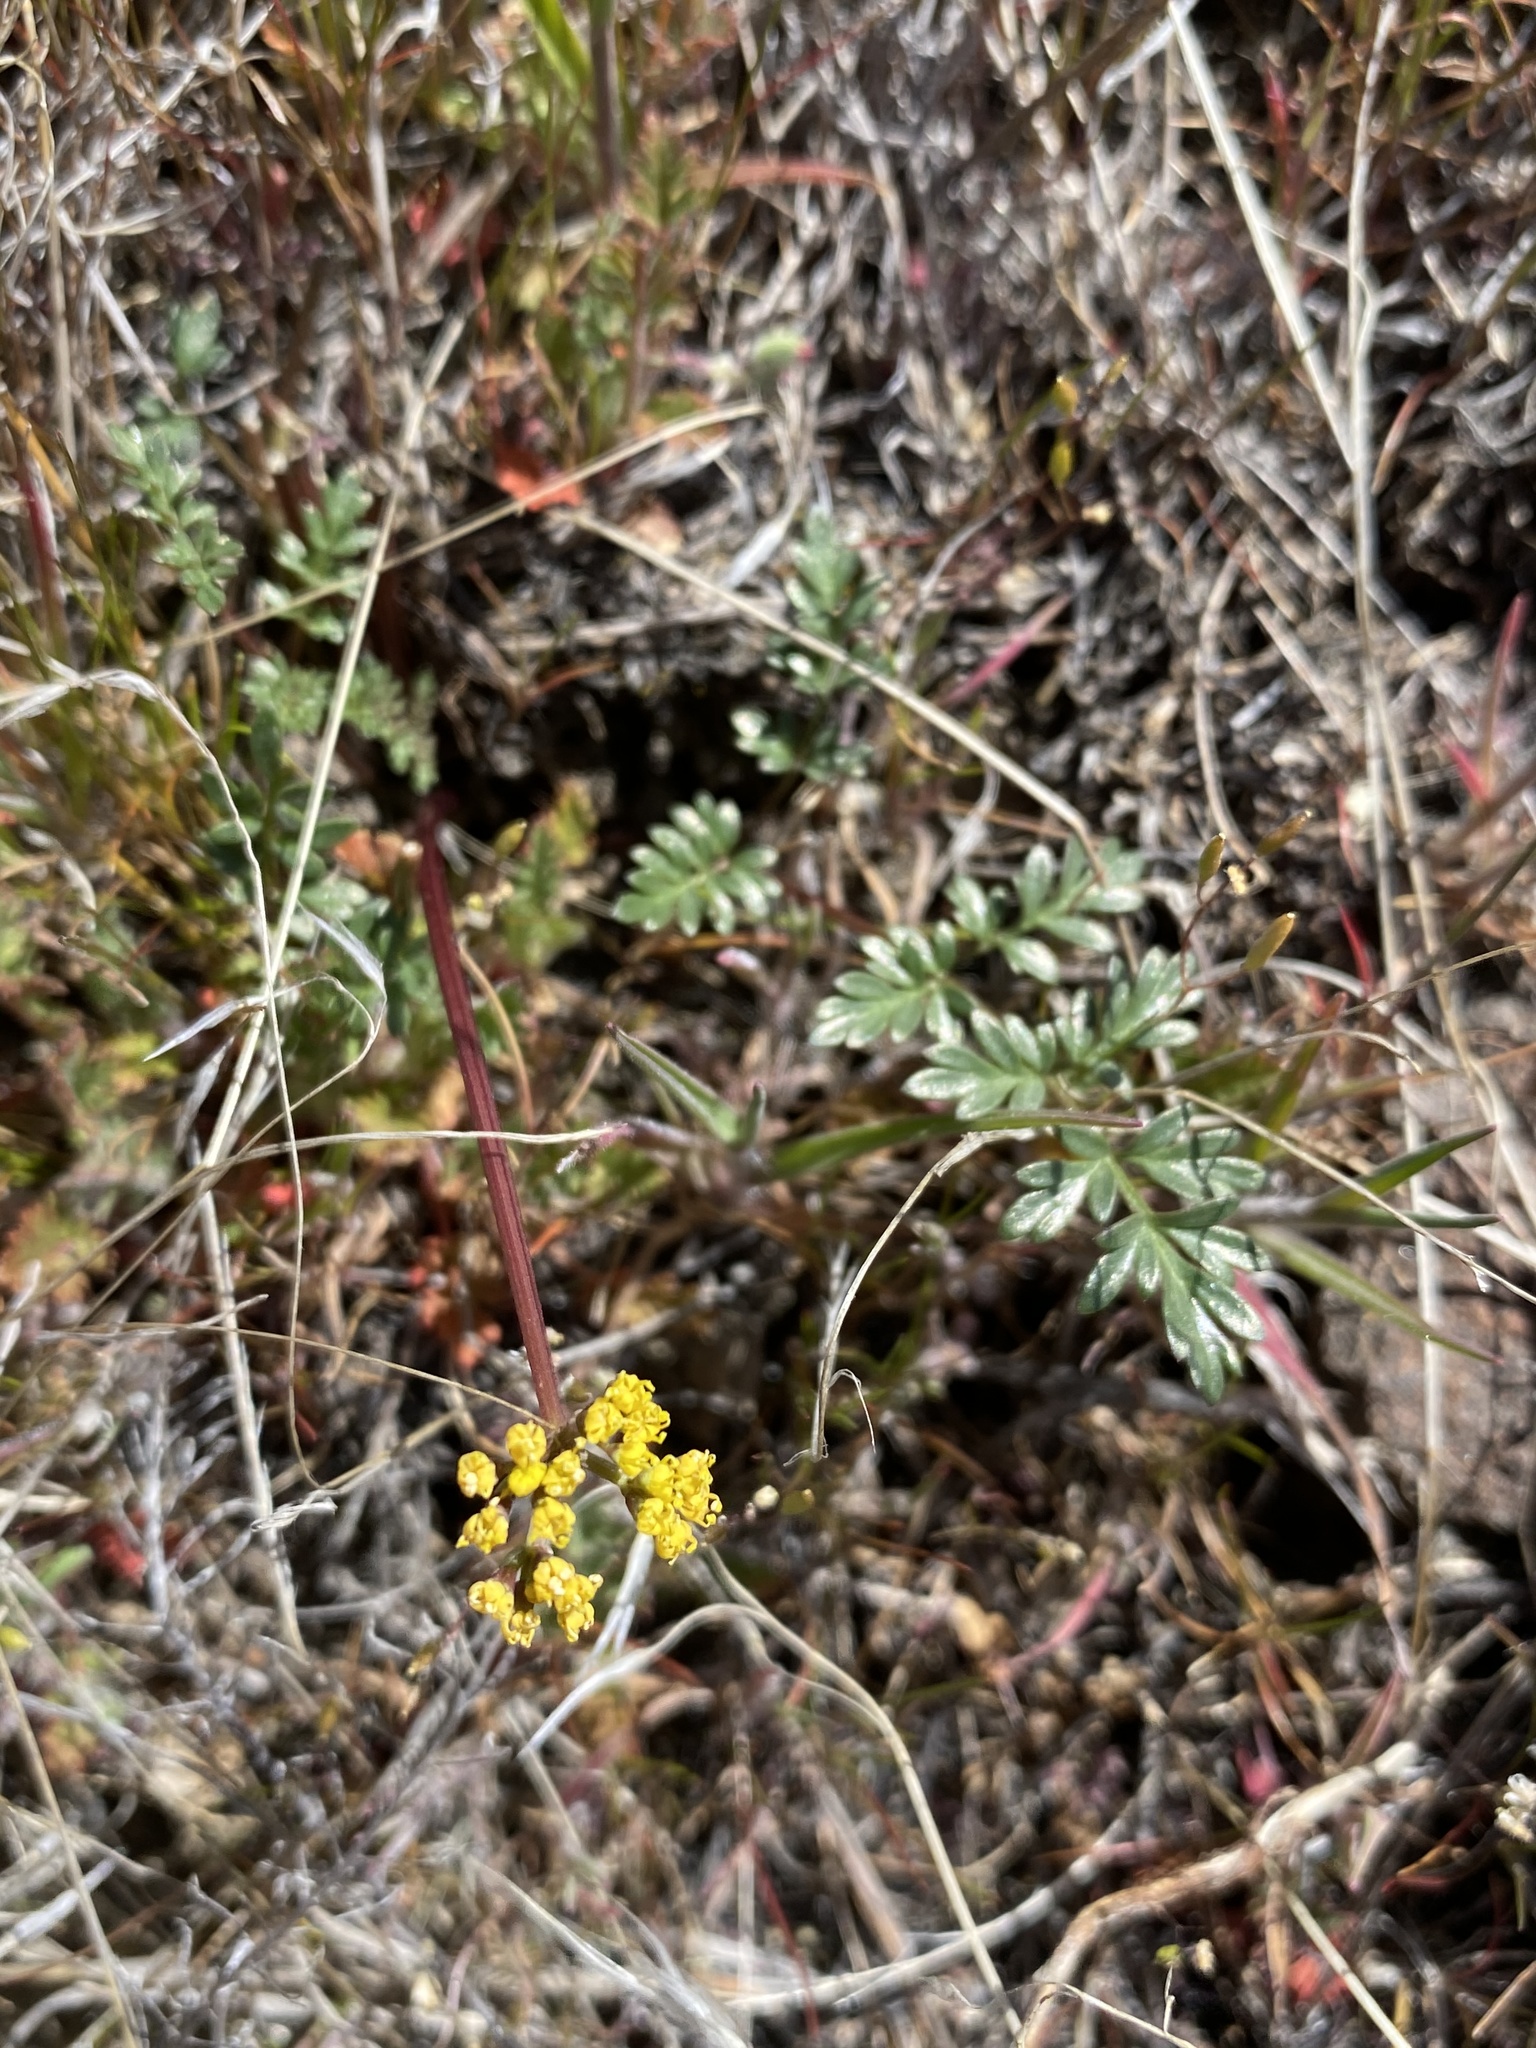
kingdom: Plantae
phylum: Tracheophyta
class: Magnoliopsida
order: Apiales
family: Apiaceae
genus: Lomatium
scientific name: Lomatium hendersonii
